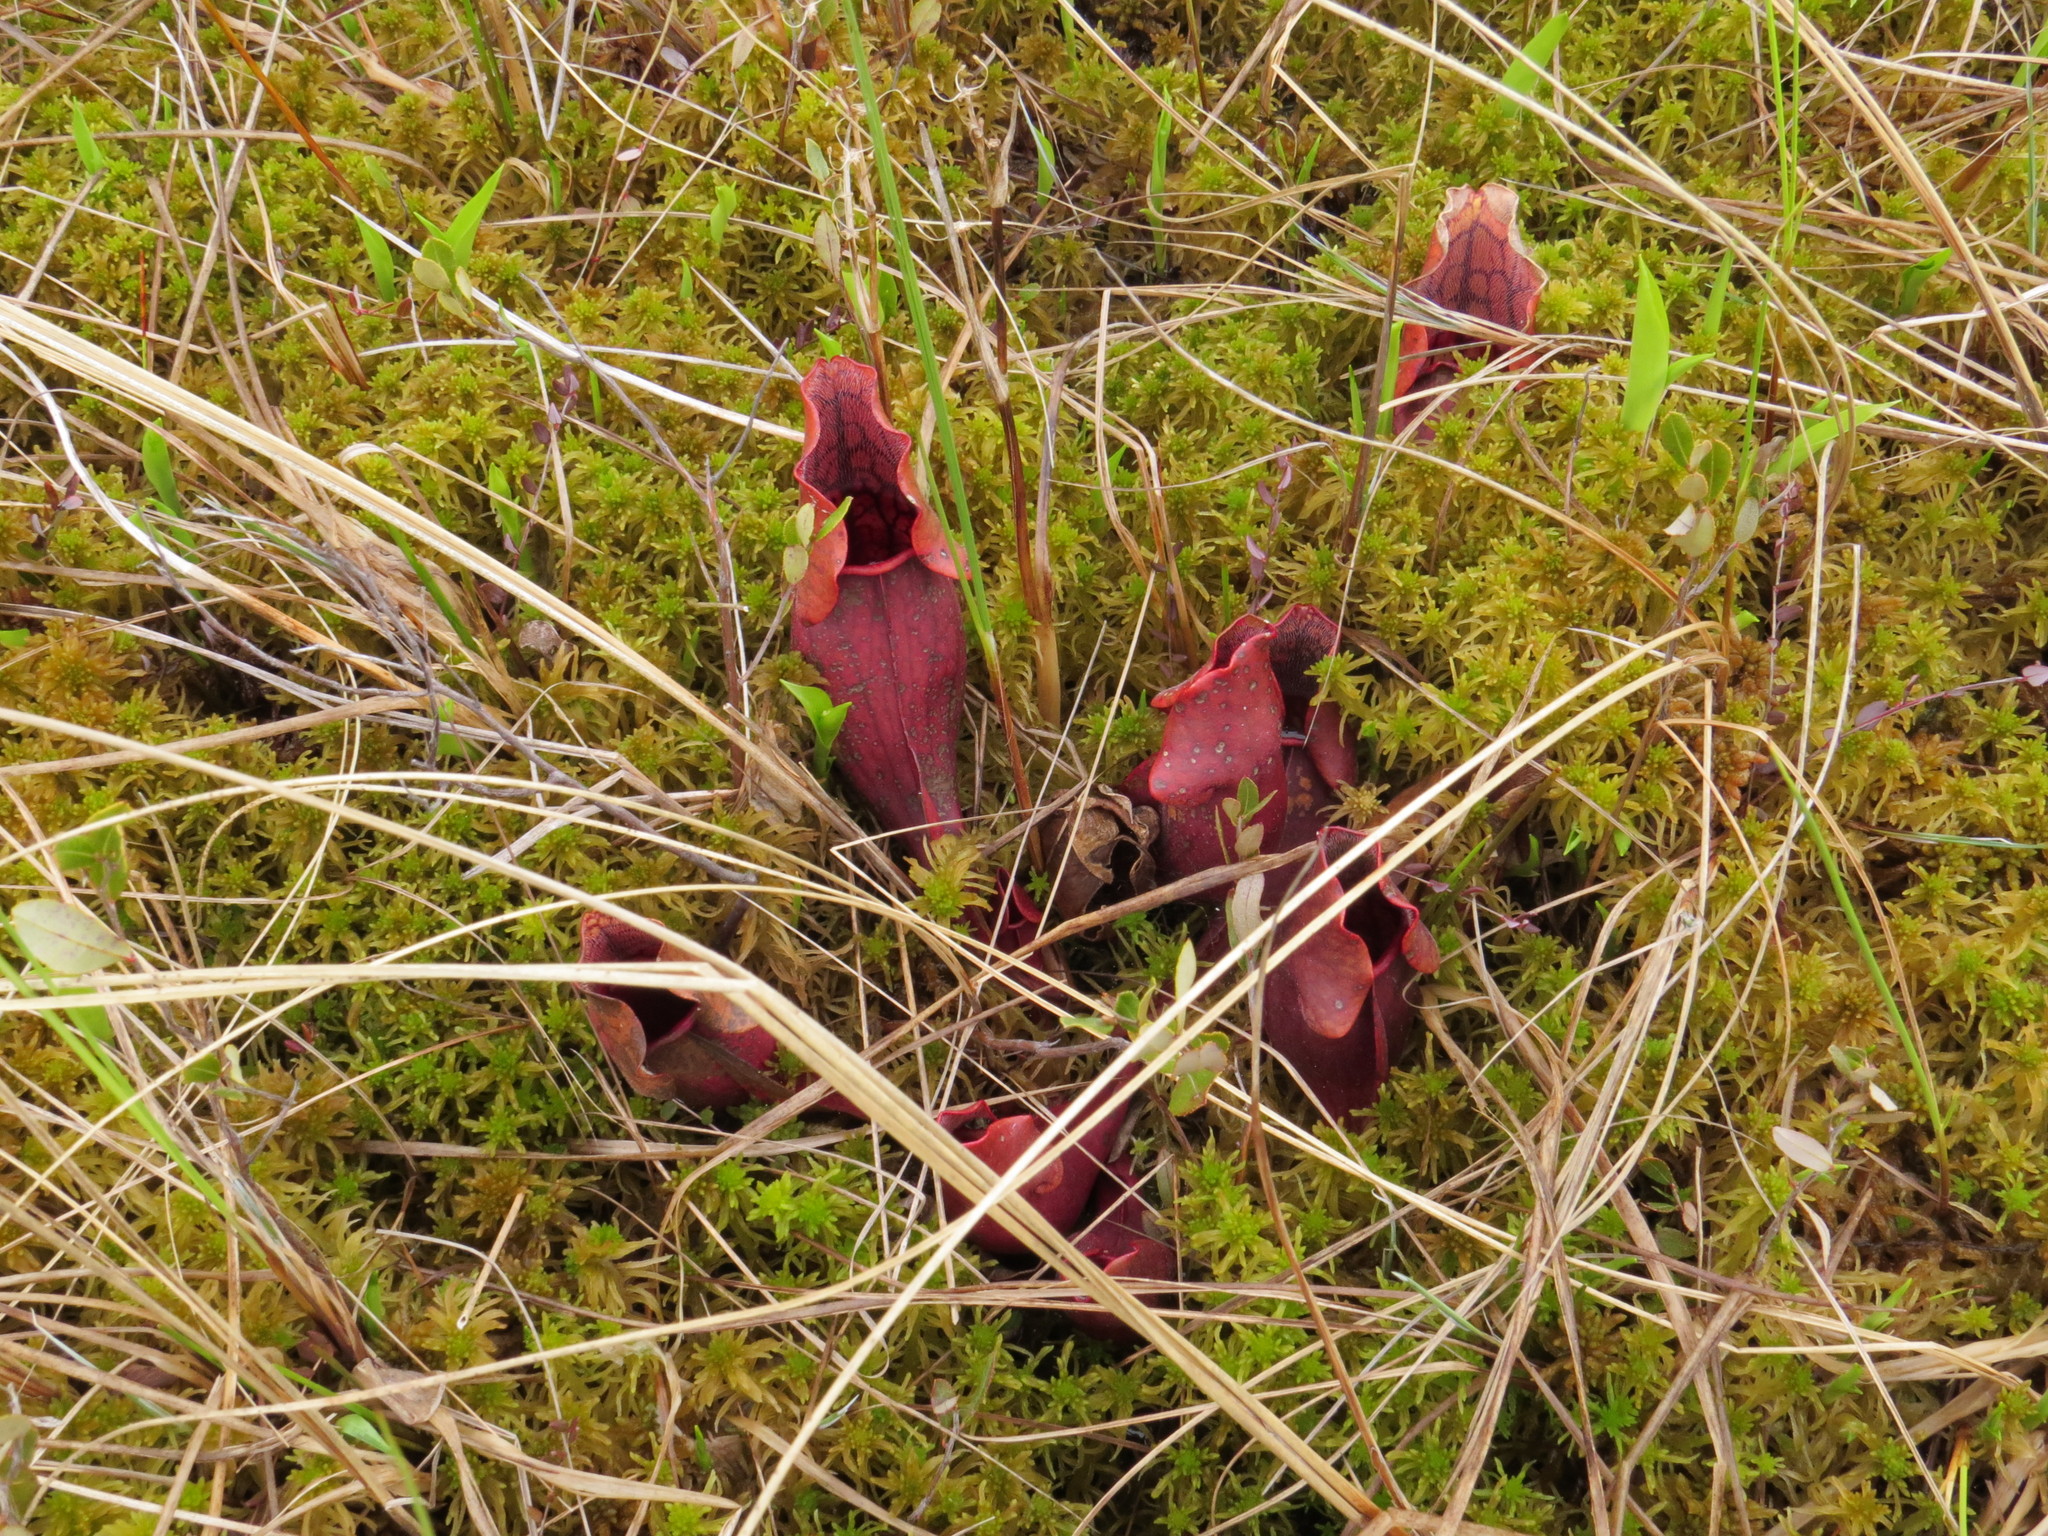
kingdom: Plantae
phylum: Tracheophyta
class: Magnoliopsida
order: Ericales
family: Sarraceniaceae
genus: Sarracenia
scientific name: Sarracenia purpurea
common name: Pitcherplant
